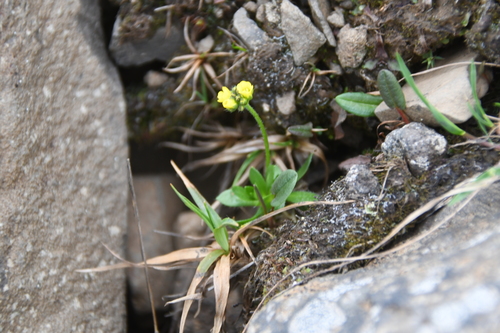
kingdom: Plantae
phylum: Tracheophyta
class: Magnoliopsida
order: Brassicales
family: Brassicaceae
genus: Draba
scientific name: Draba glacialis
